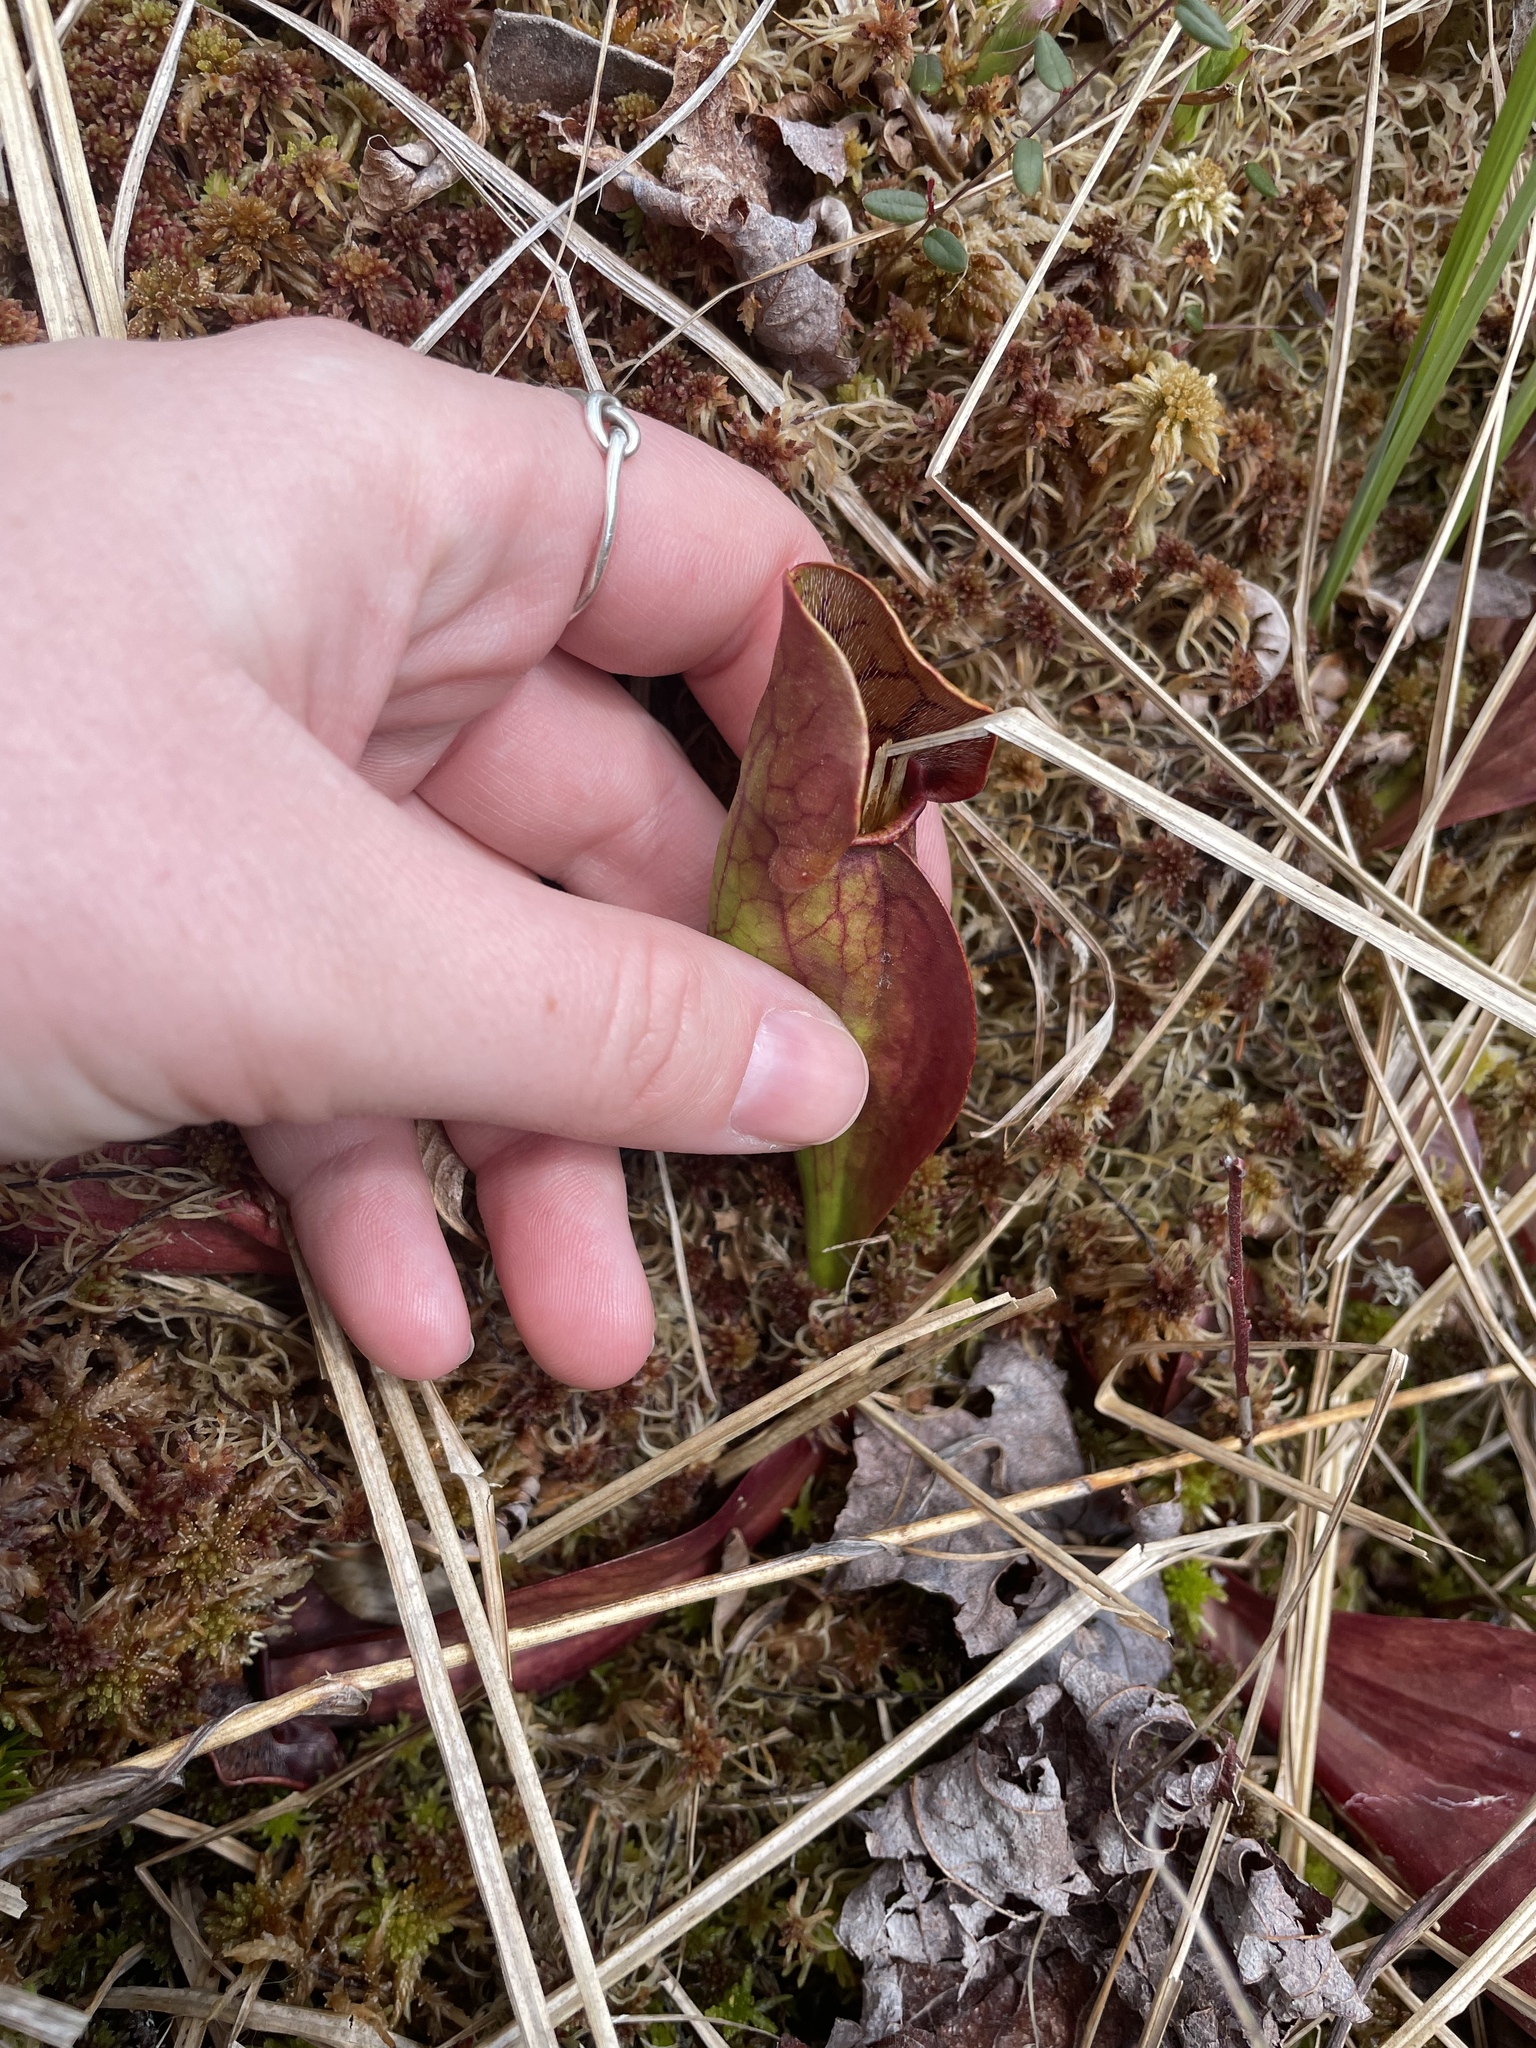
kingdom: Plantae
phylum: Tracheophyta
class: Magnoliopsida
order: Ericales
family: Sarraceniaceae
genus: Sarracenia
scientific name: Sarracenia purpurea
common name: Pitcherplant
